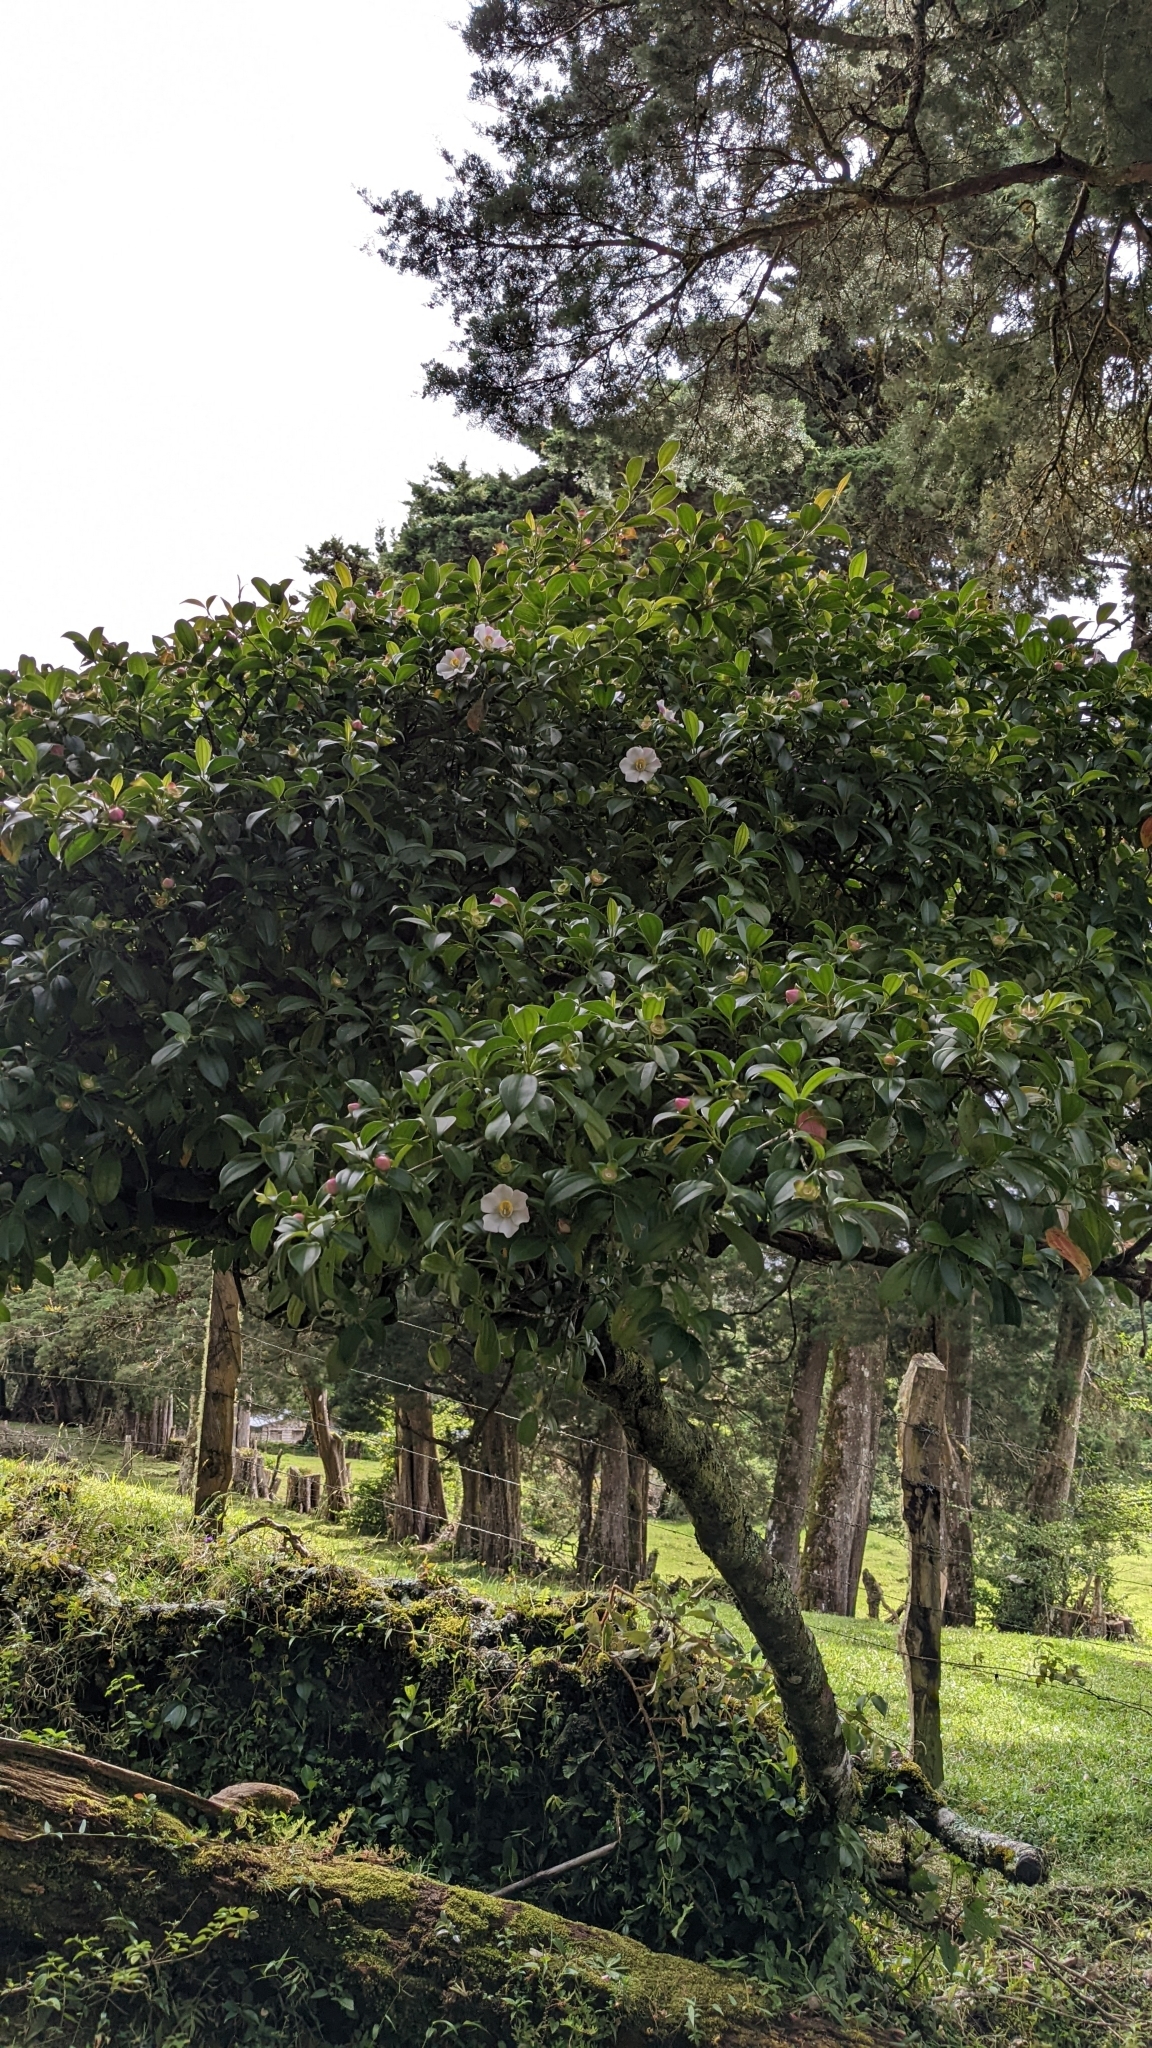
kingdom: Plantae
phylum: Tracheophyta
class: Magnoliopsida
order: Myrtales
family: Melastomataceae
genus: Blakea
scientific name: Blakea gracilis
